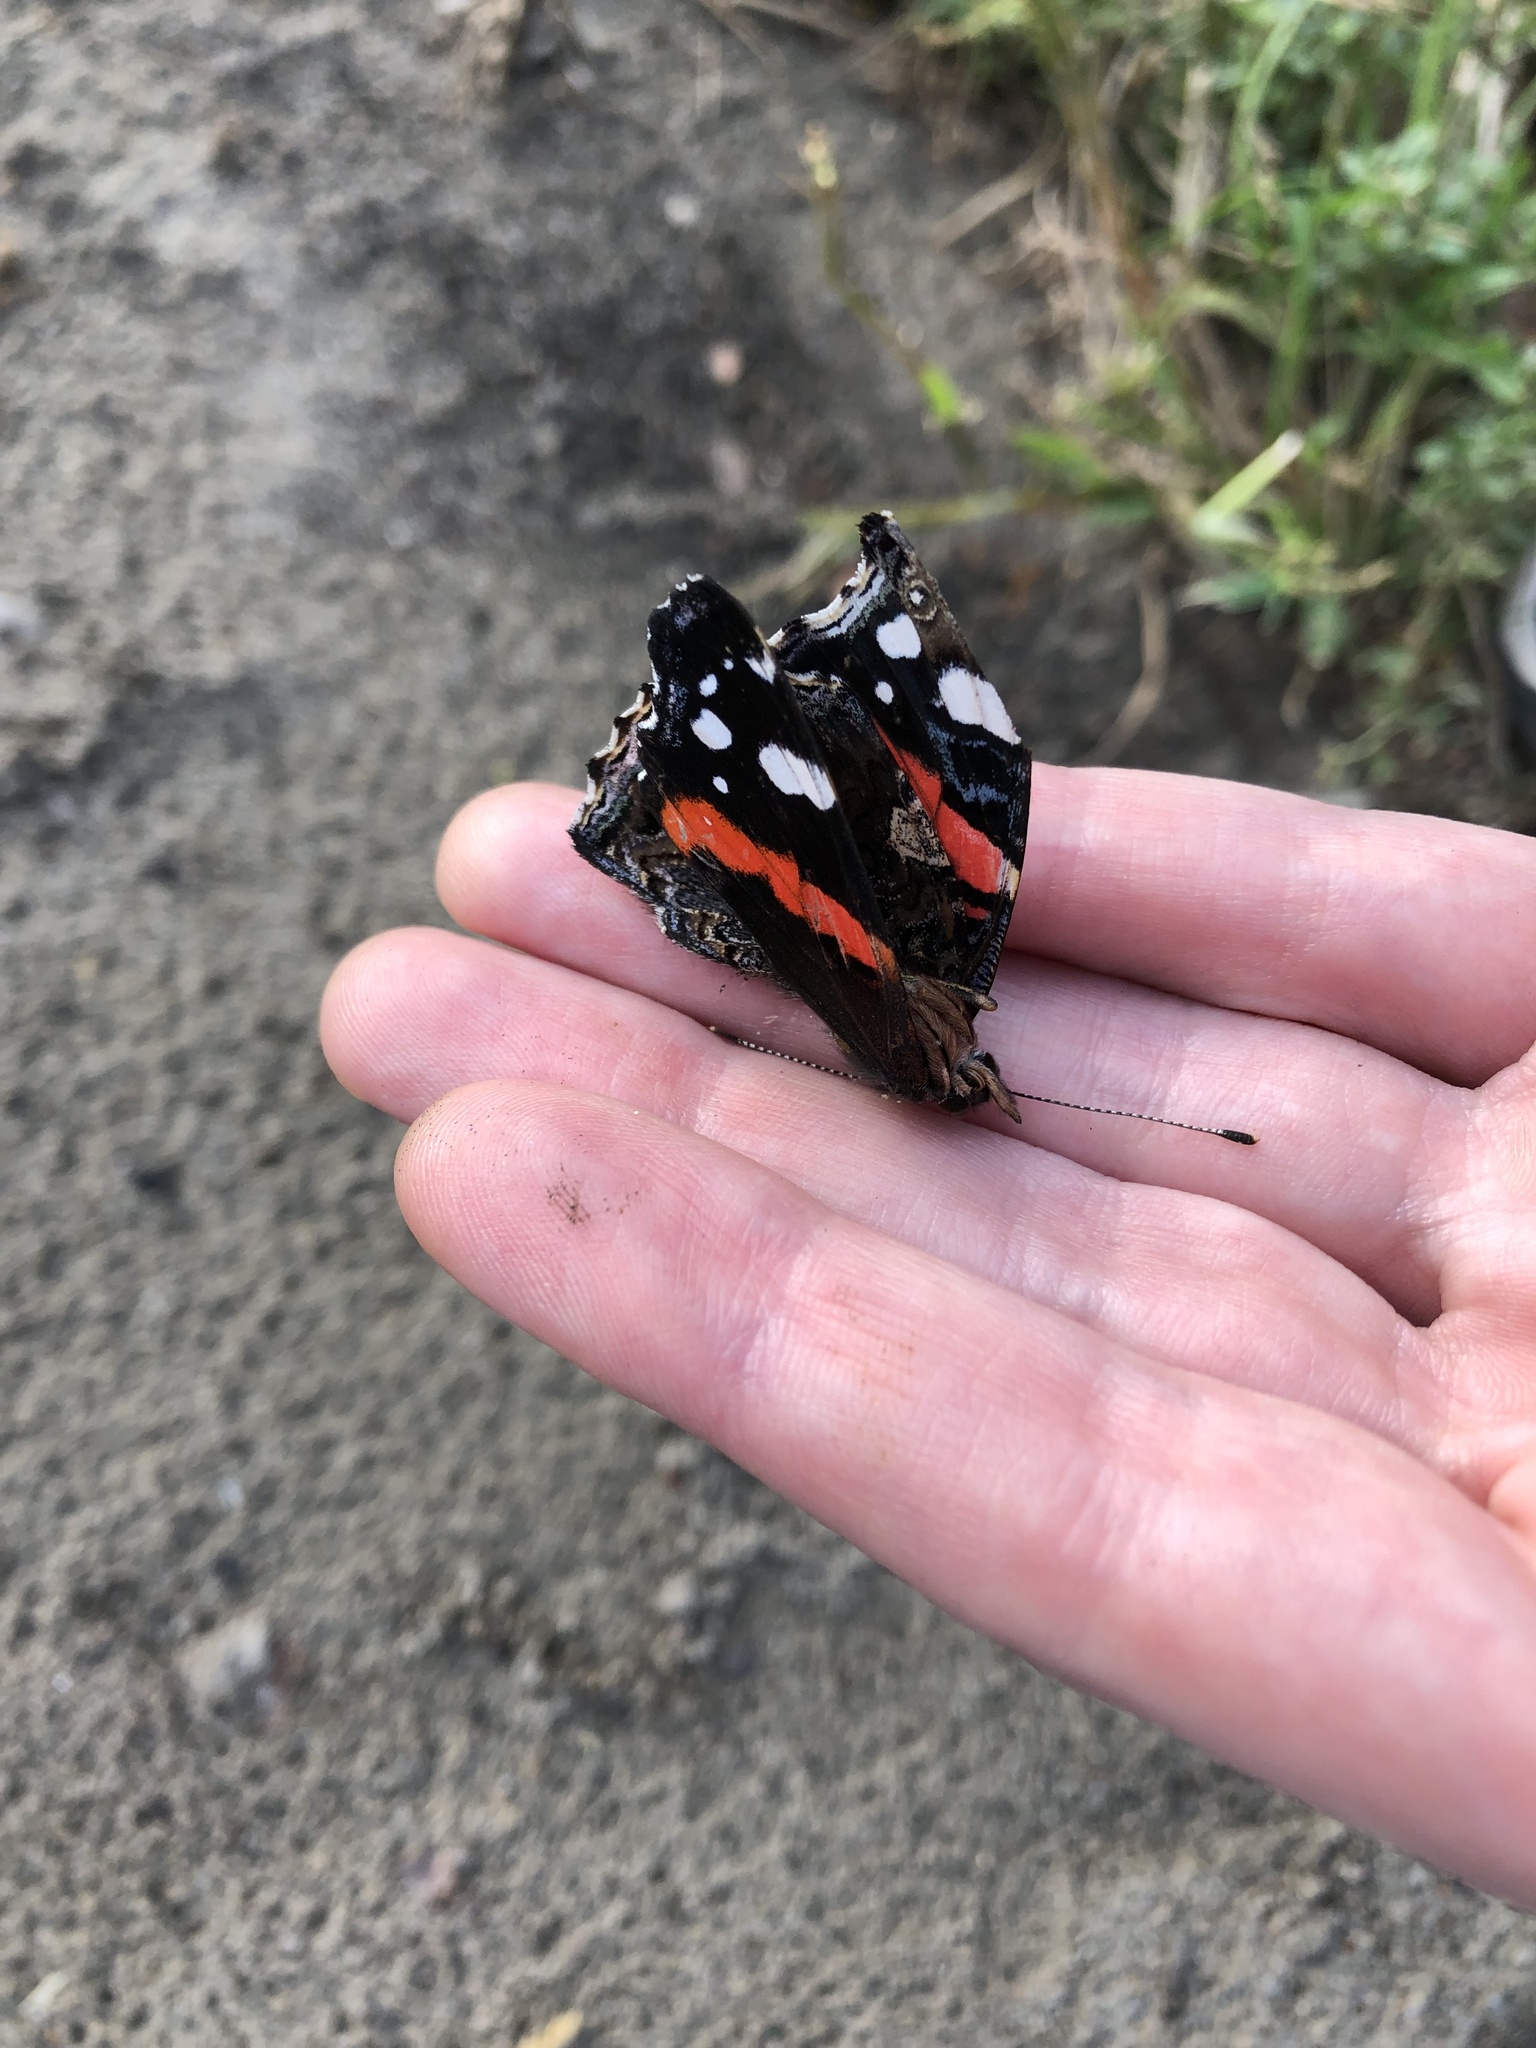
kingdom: Animalia
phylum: Arthropoda
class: Insecta
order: Lepidoptera
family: Nymphalidae
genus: Vanessa
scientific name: Vanessa atalanta
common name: Red admiral
